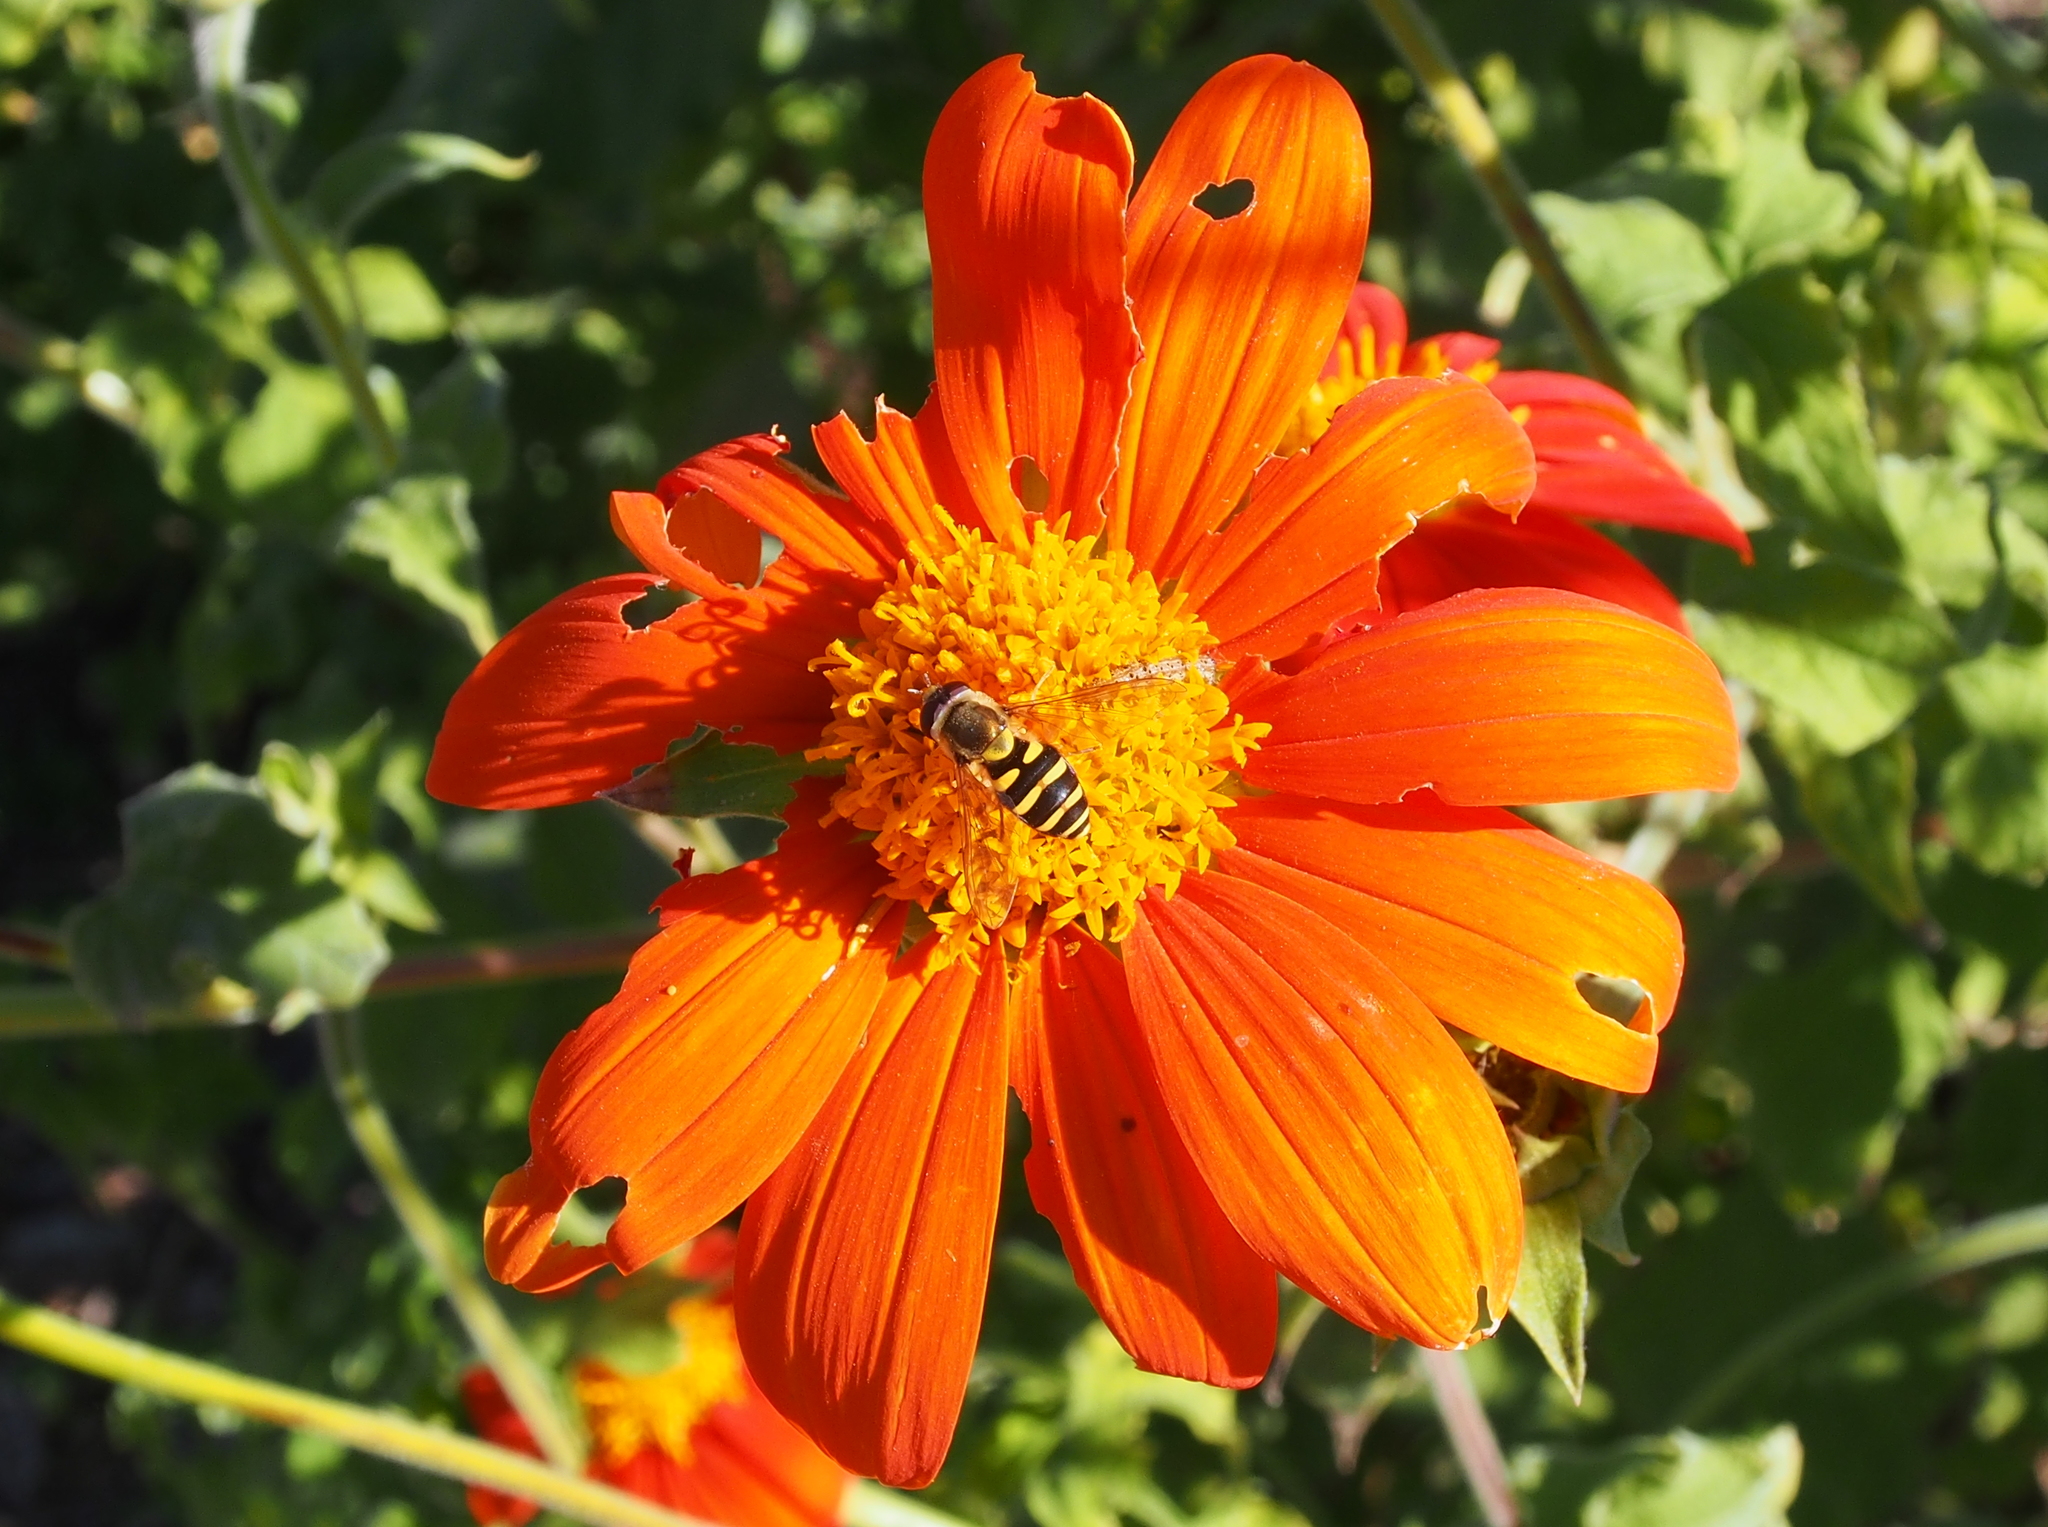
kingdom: Animalia
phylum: Arthropoda
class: Insecta
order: Diptera
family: Syrphidae
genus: Syrphus
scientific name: Syrphus opinator
